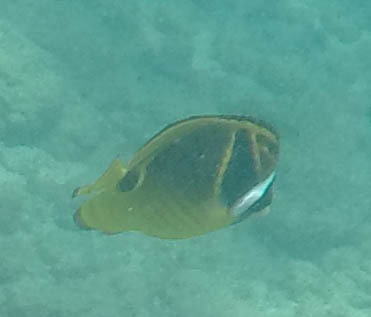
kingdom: Animalia
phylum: Chordata
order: Perciformes
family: Chaetodontidae
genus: Chaetodon
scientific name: Chaetodon lunula
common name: Raccoon butterflyfish
